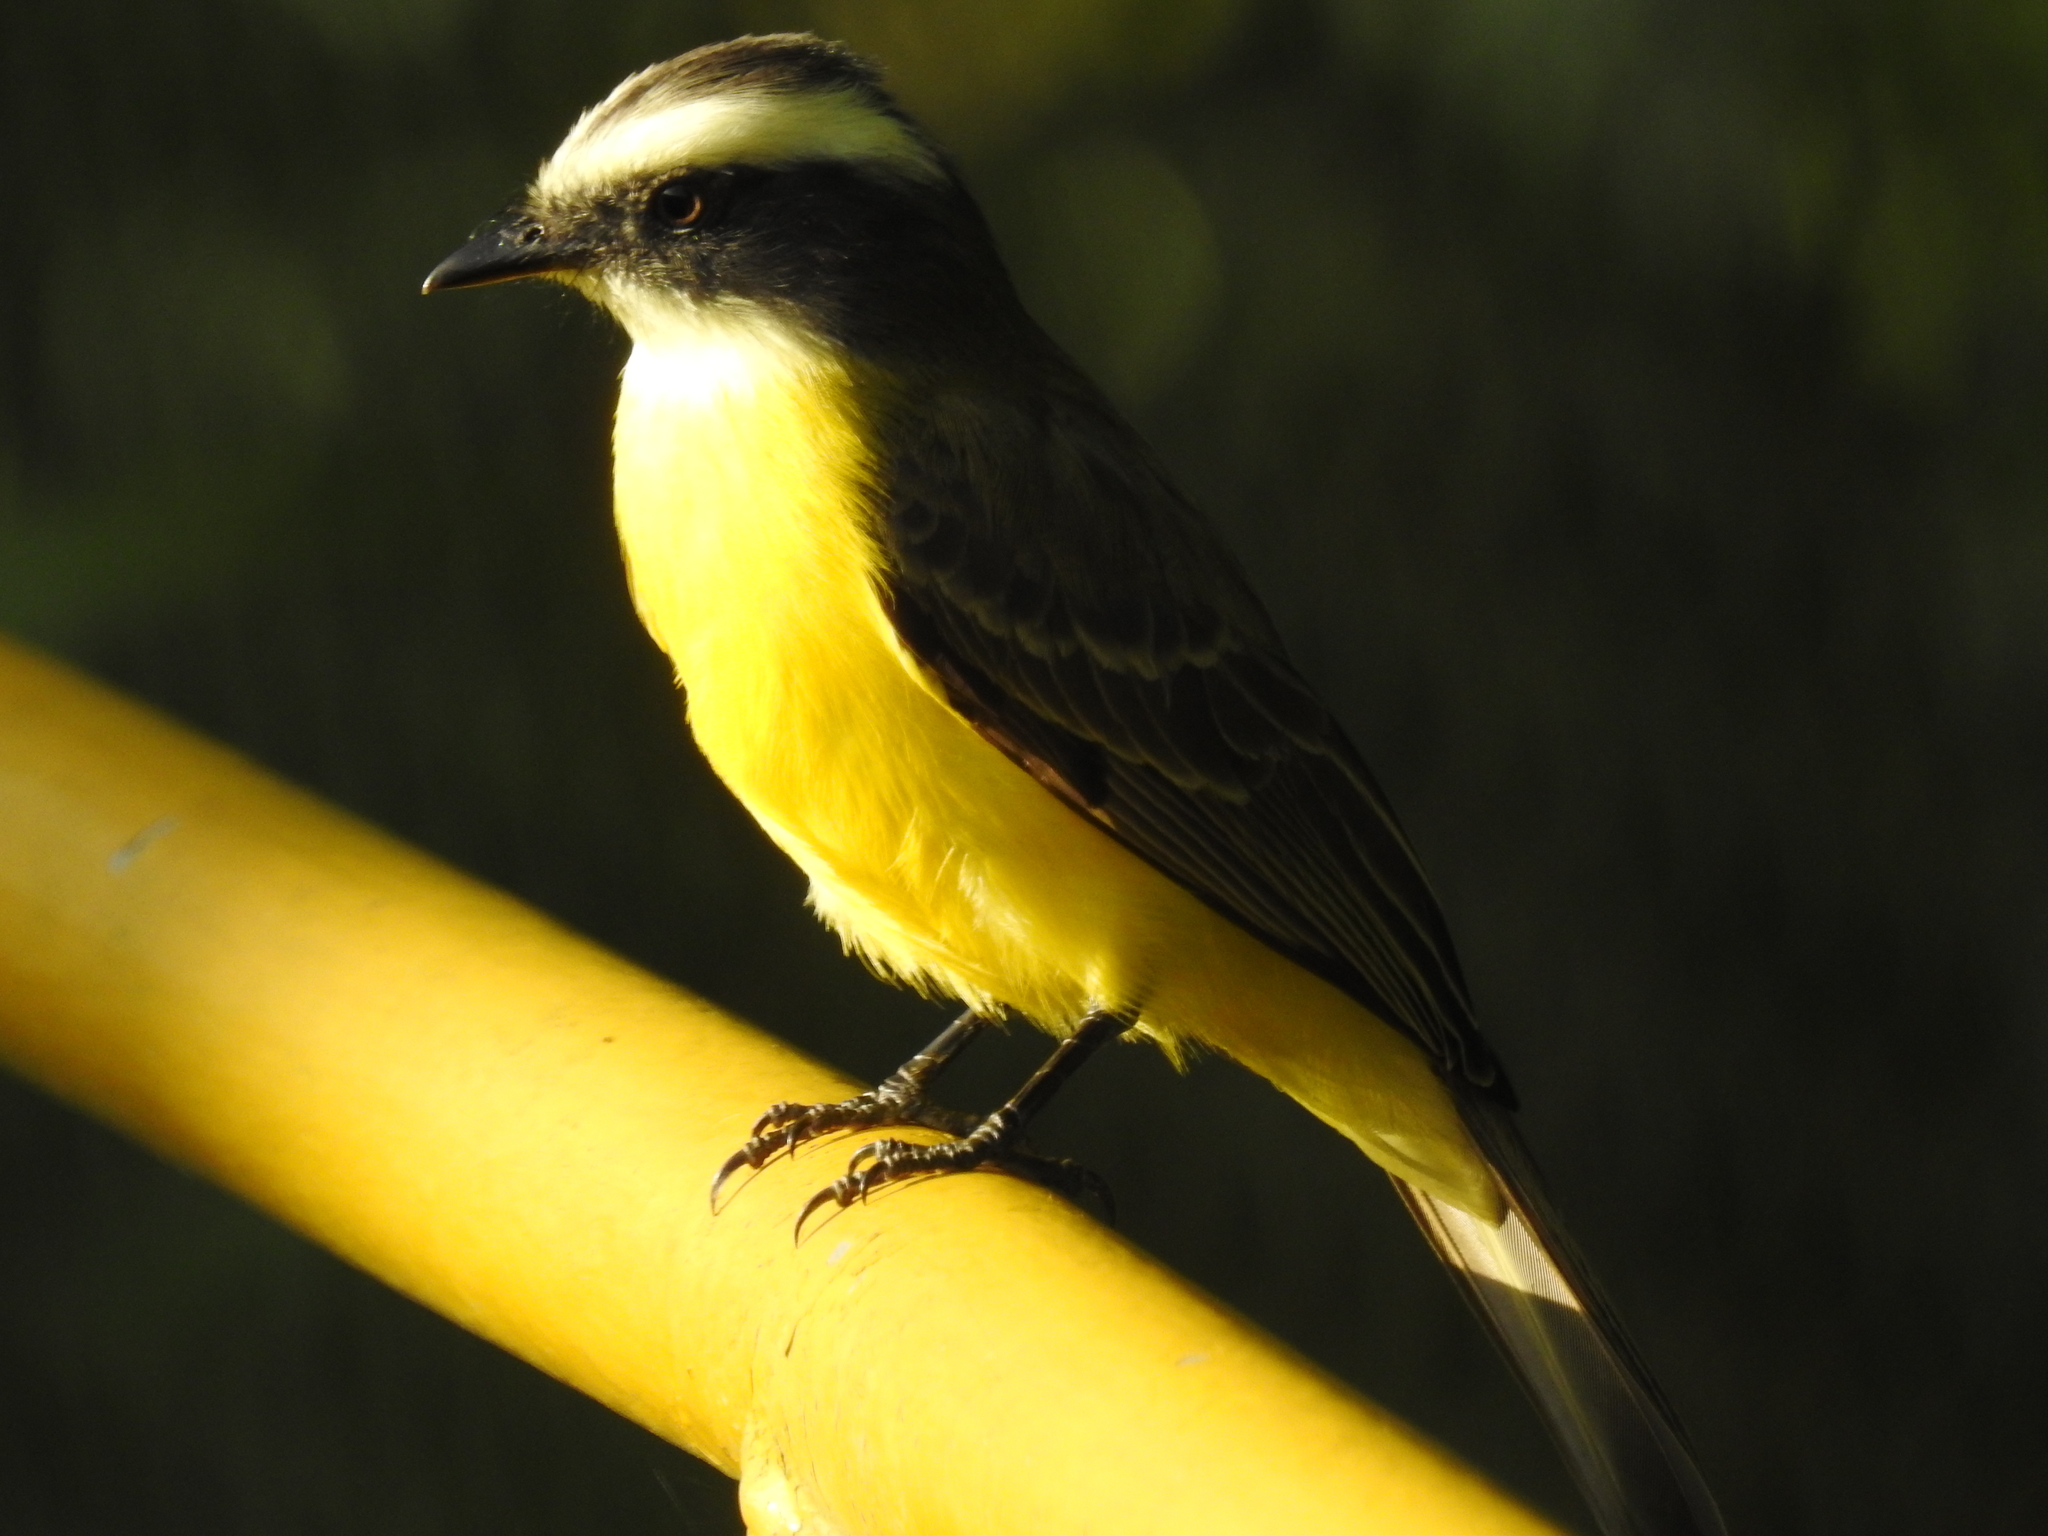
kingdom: Animalia
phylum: Chordata
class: Aves
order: Passeriformes
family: Tyrannidae
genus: Myiozetetes
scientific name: Myiozetetes similis
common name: Social flycatcher
